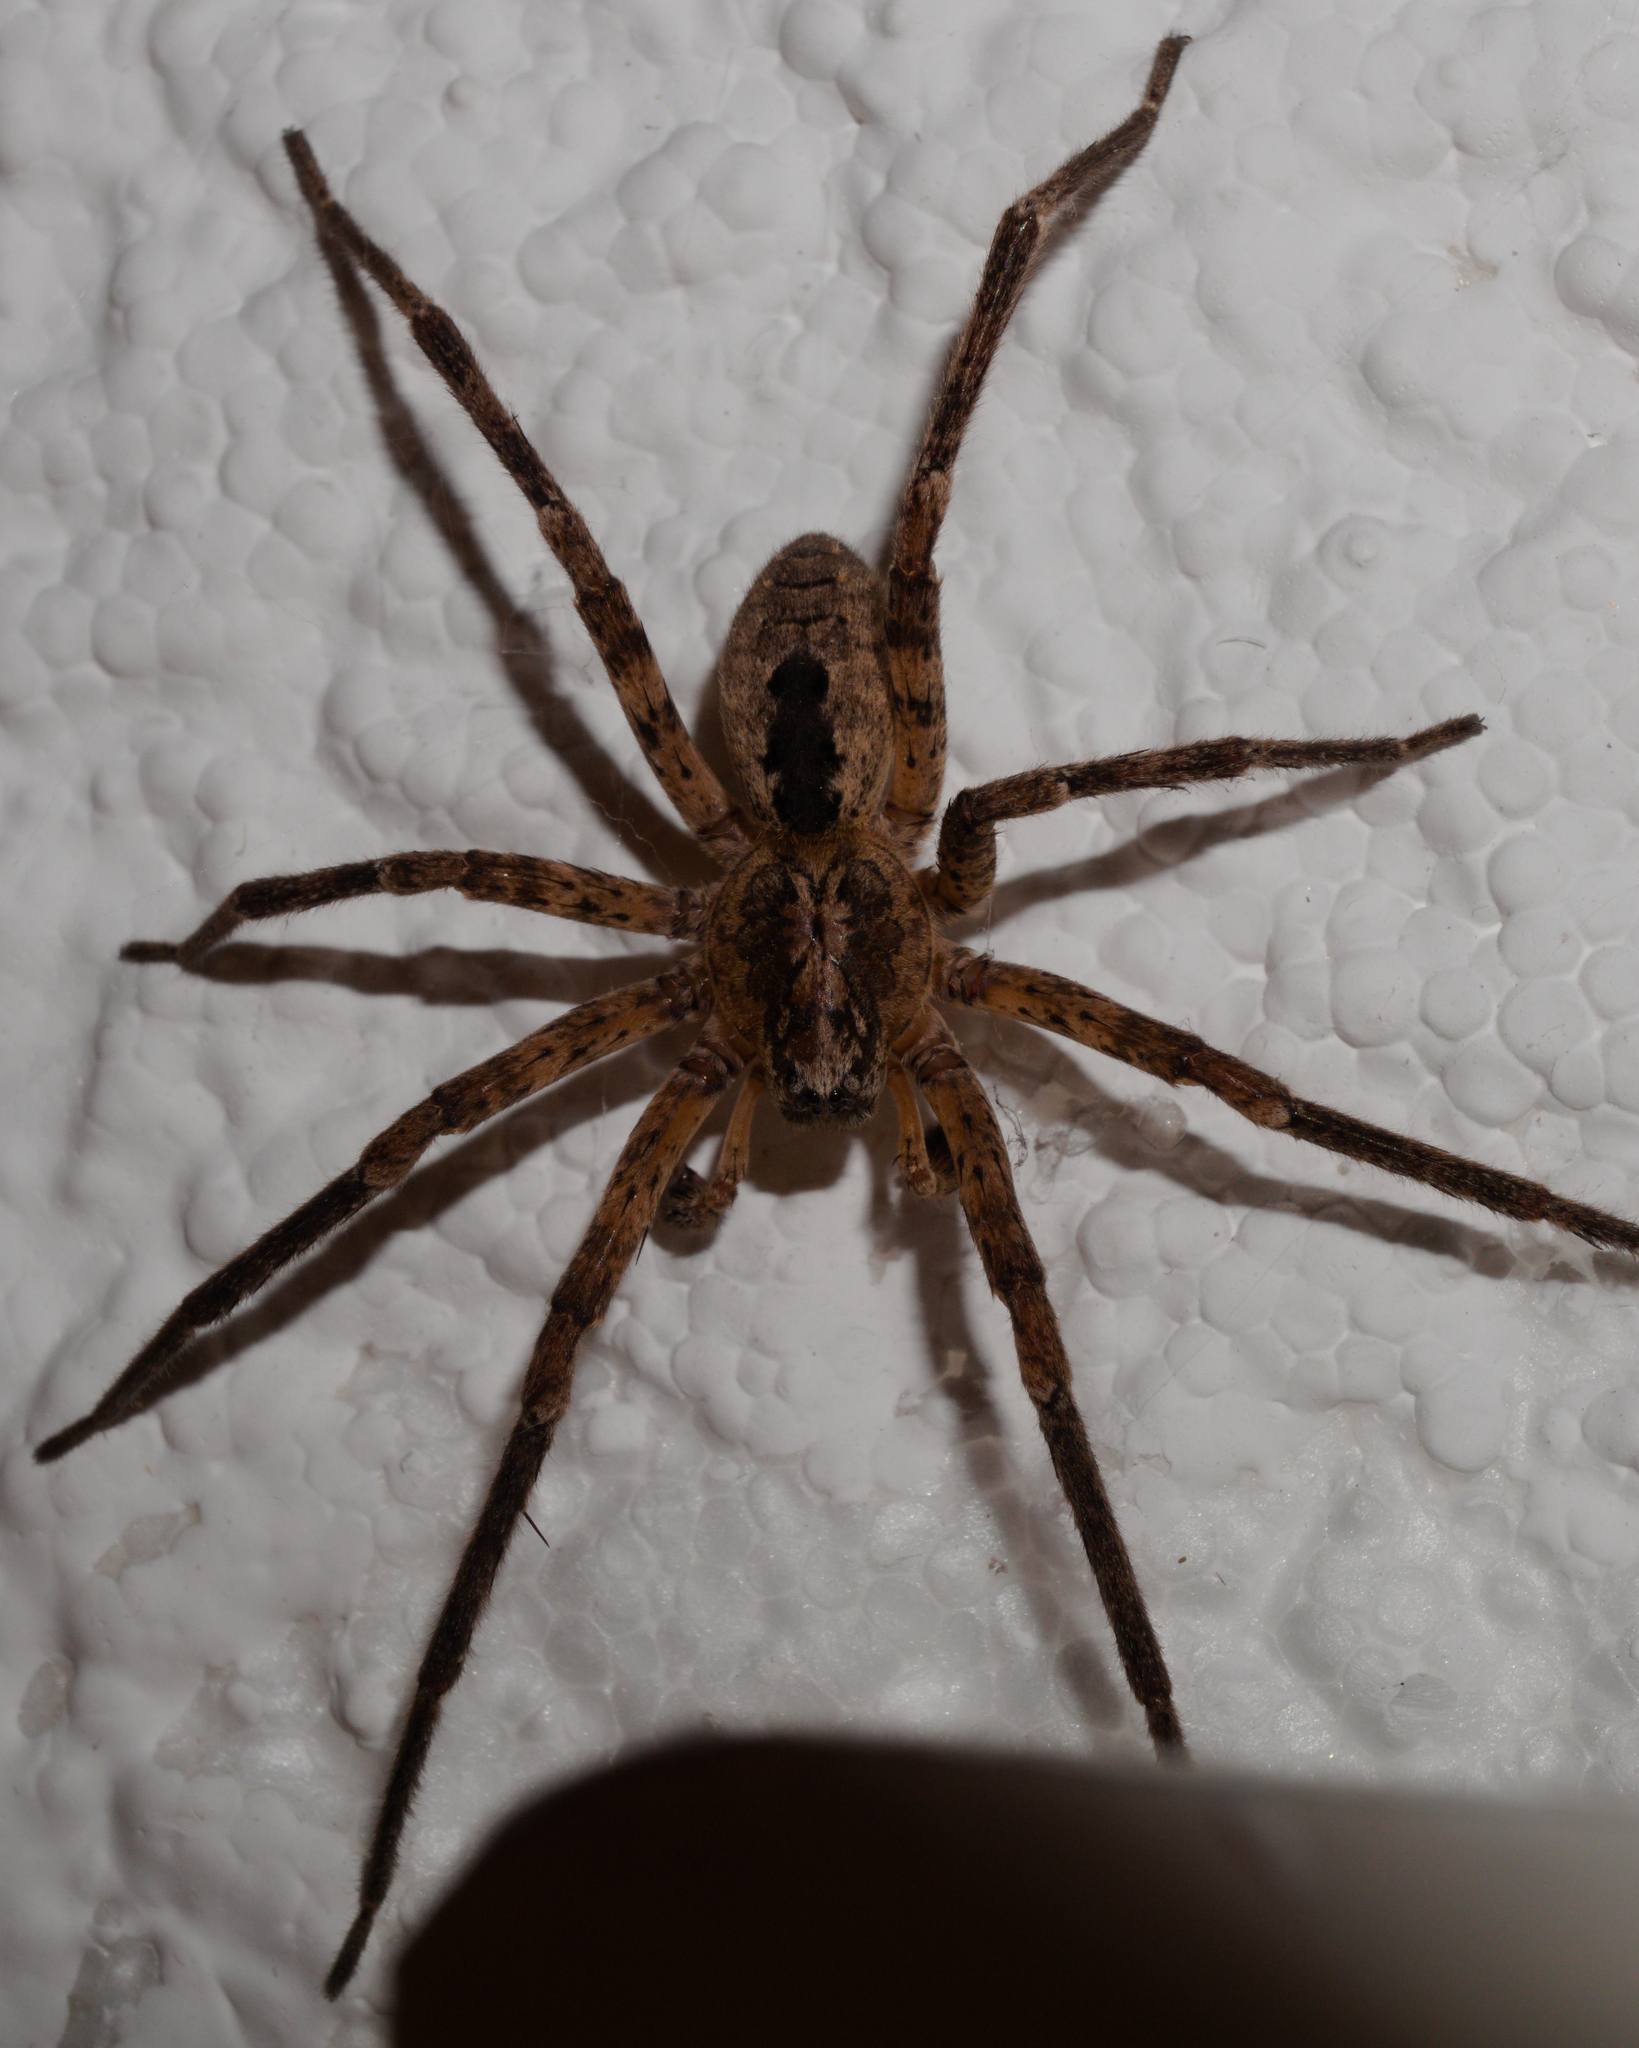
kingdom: Animalia
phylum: Arthropoda
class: Arachnida
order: Araneae
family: Zoropsidae
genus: Zoropsis
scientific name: Zoropsis spinimana
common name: Zoropsid spider
